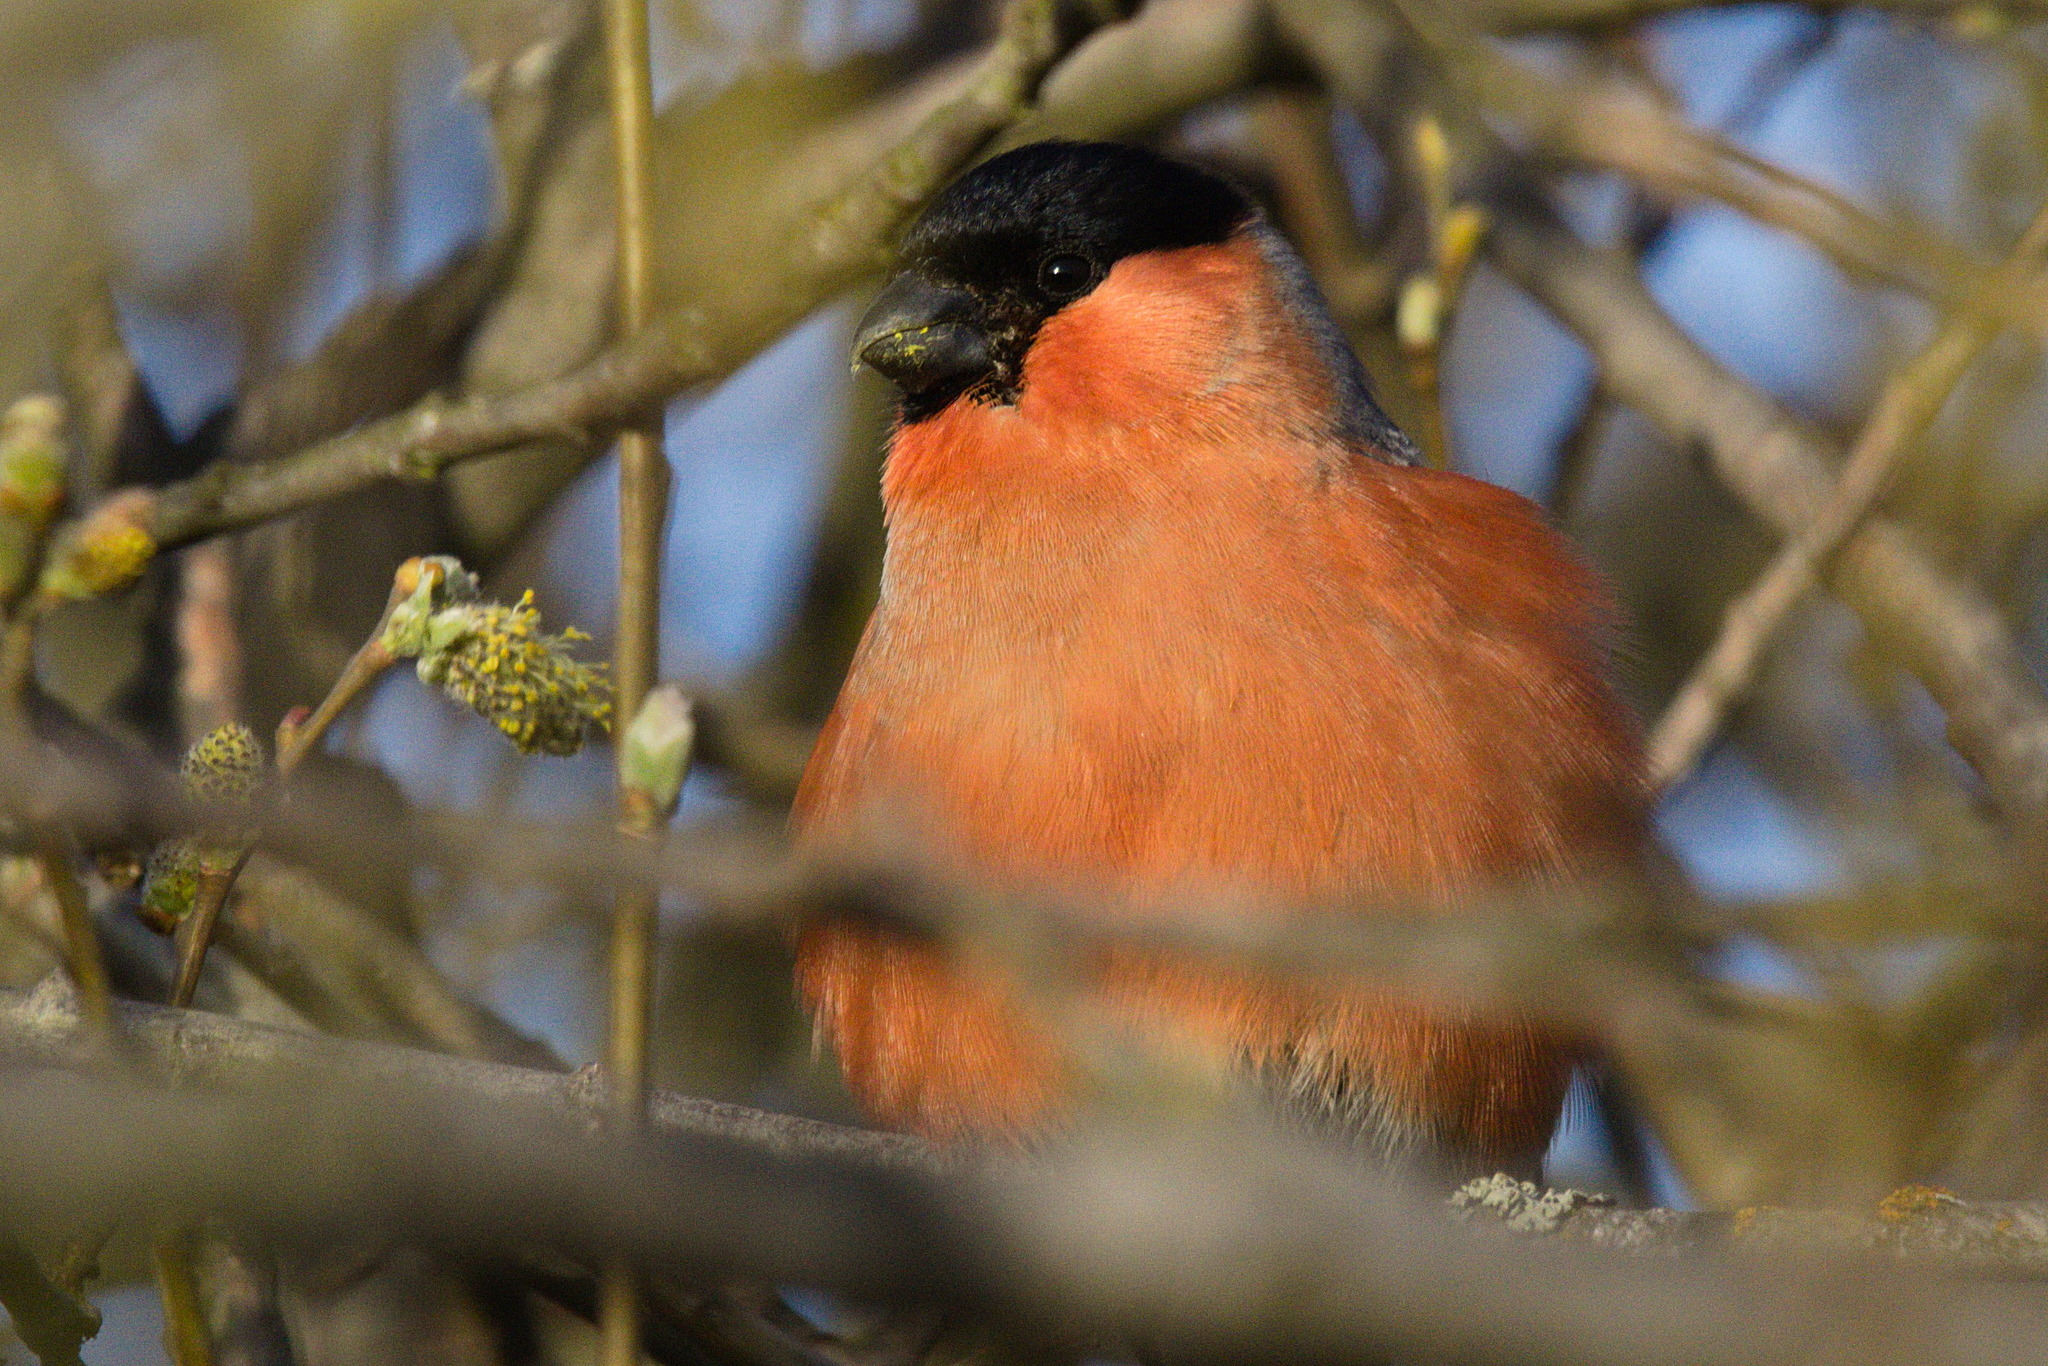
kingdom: Animalia
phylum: Chordata
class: Aves
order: Passeriformes
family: Fringillidae
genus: Pyrrhula
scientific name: Pyrrhula pyrrhula
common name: Eurasian bullfinch
